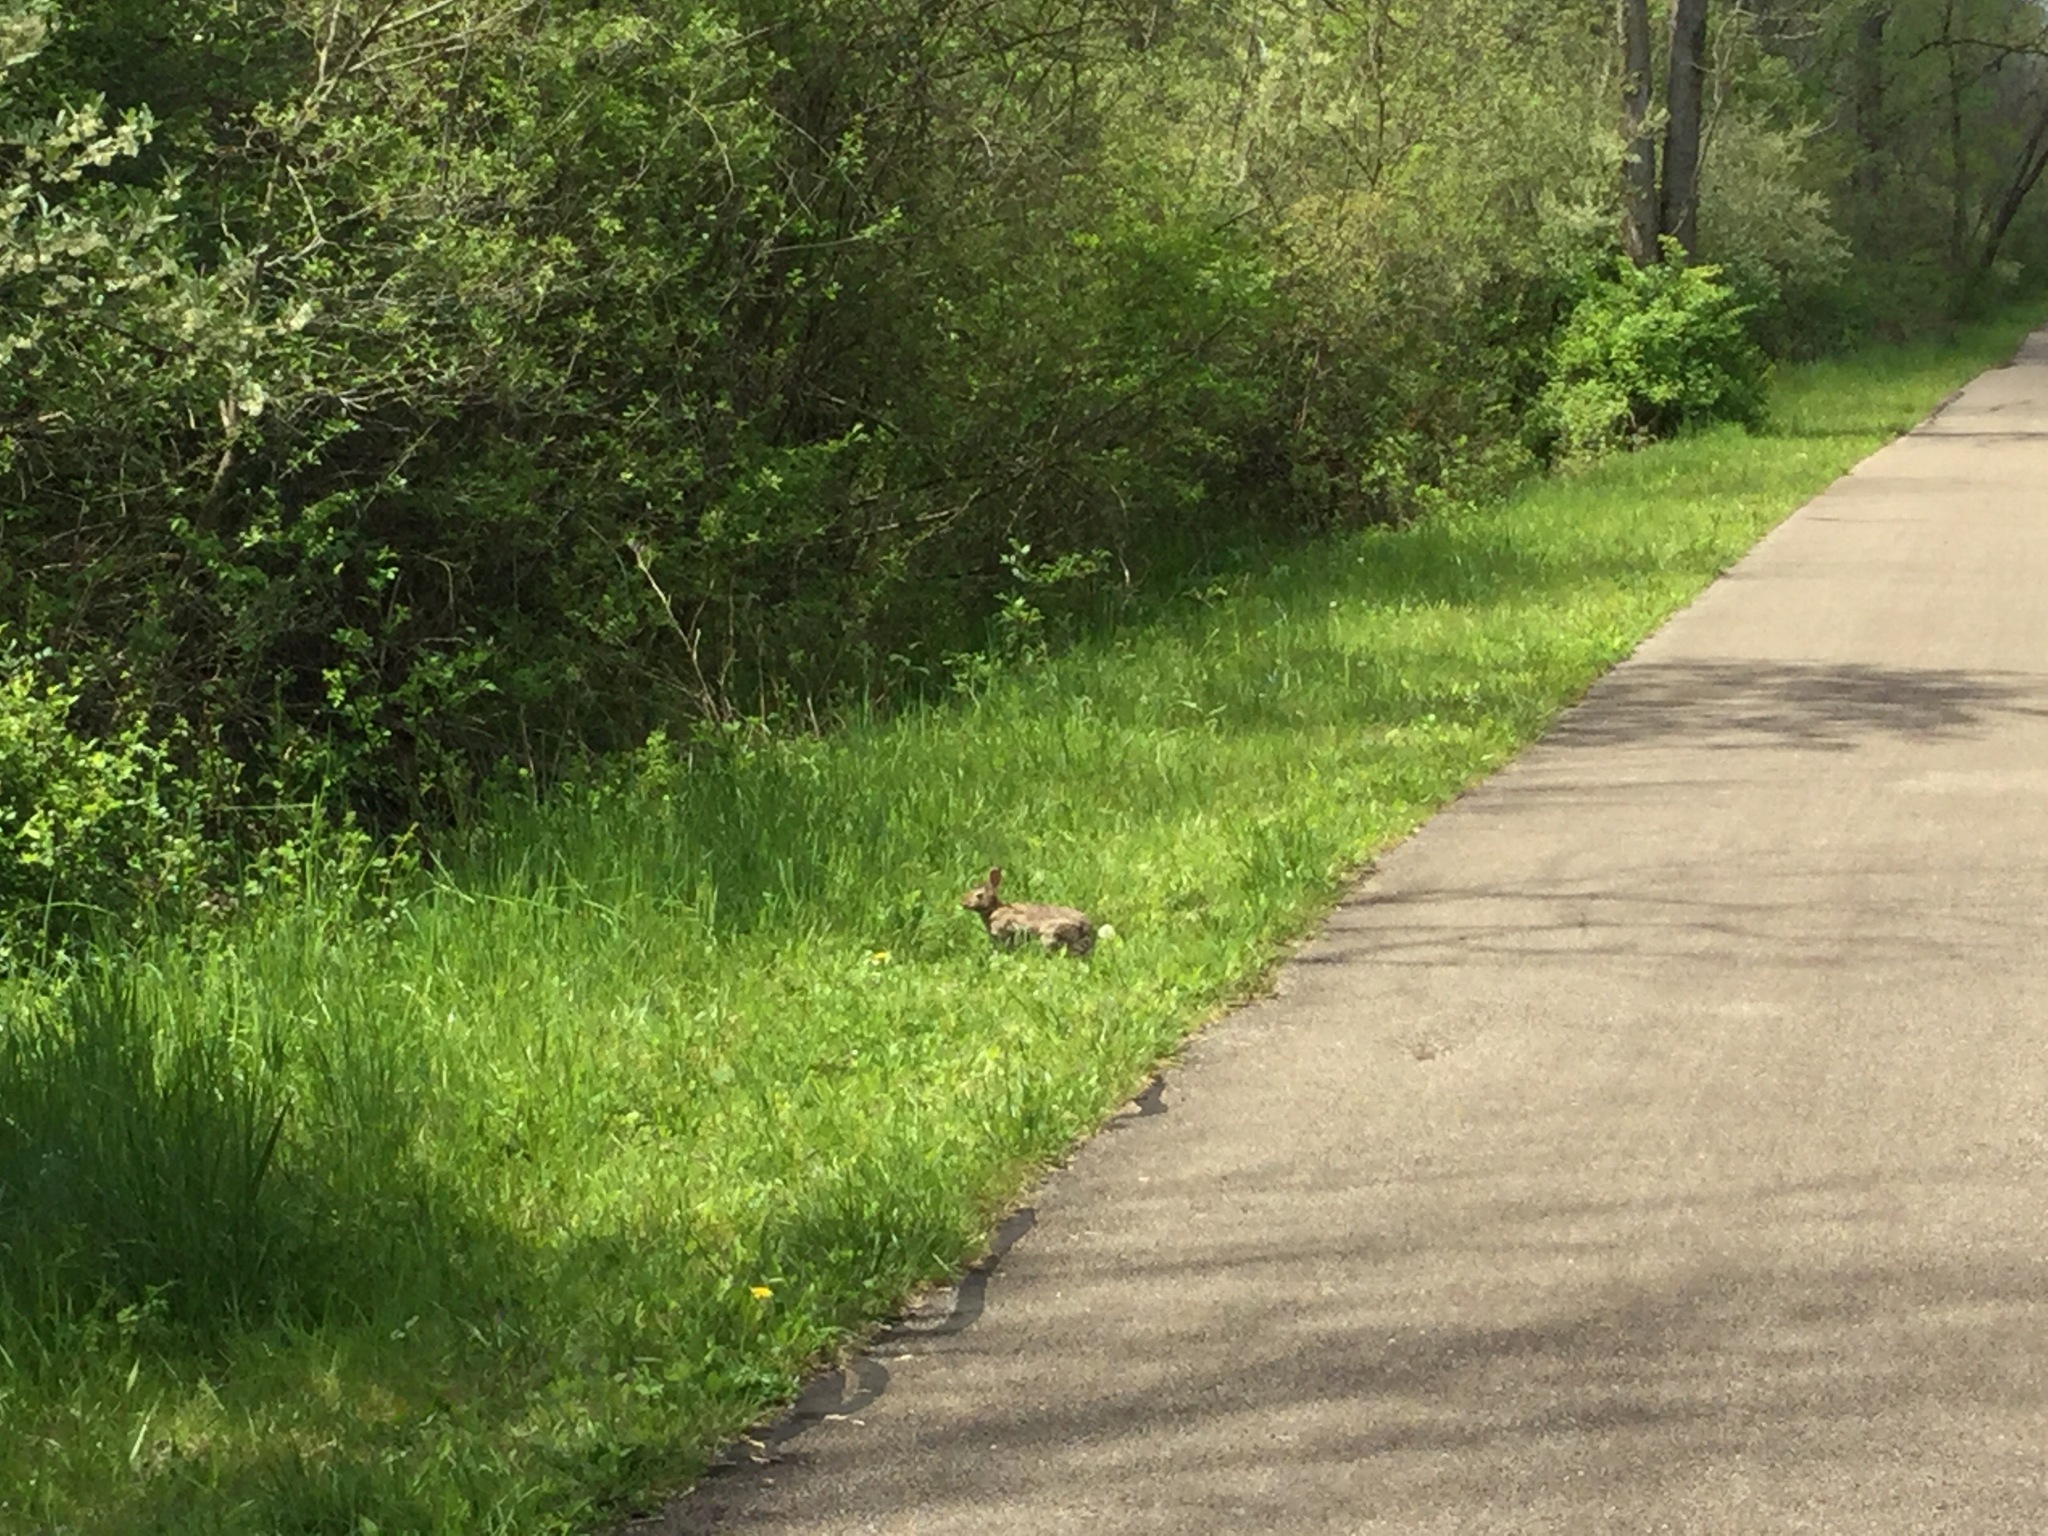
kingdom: Animalia
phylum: Chordata
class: Mammalia
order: Lagomorpha
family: Leporidae
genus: Sylvilagus
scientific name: Sylvilagus floridanus
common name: Eastern cottontail
